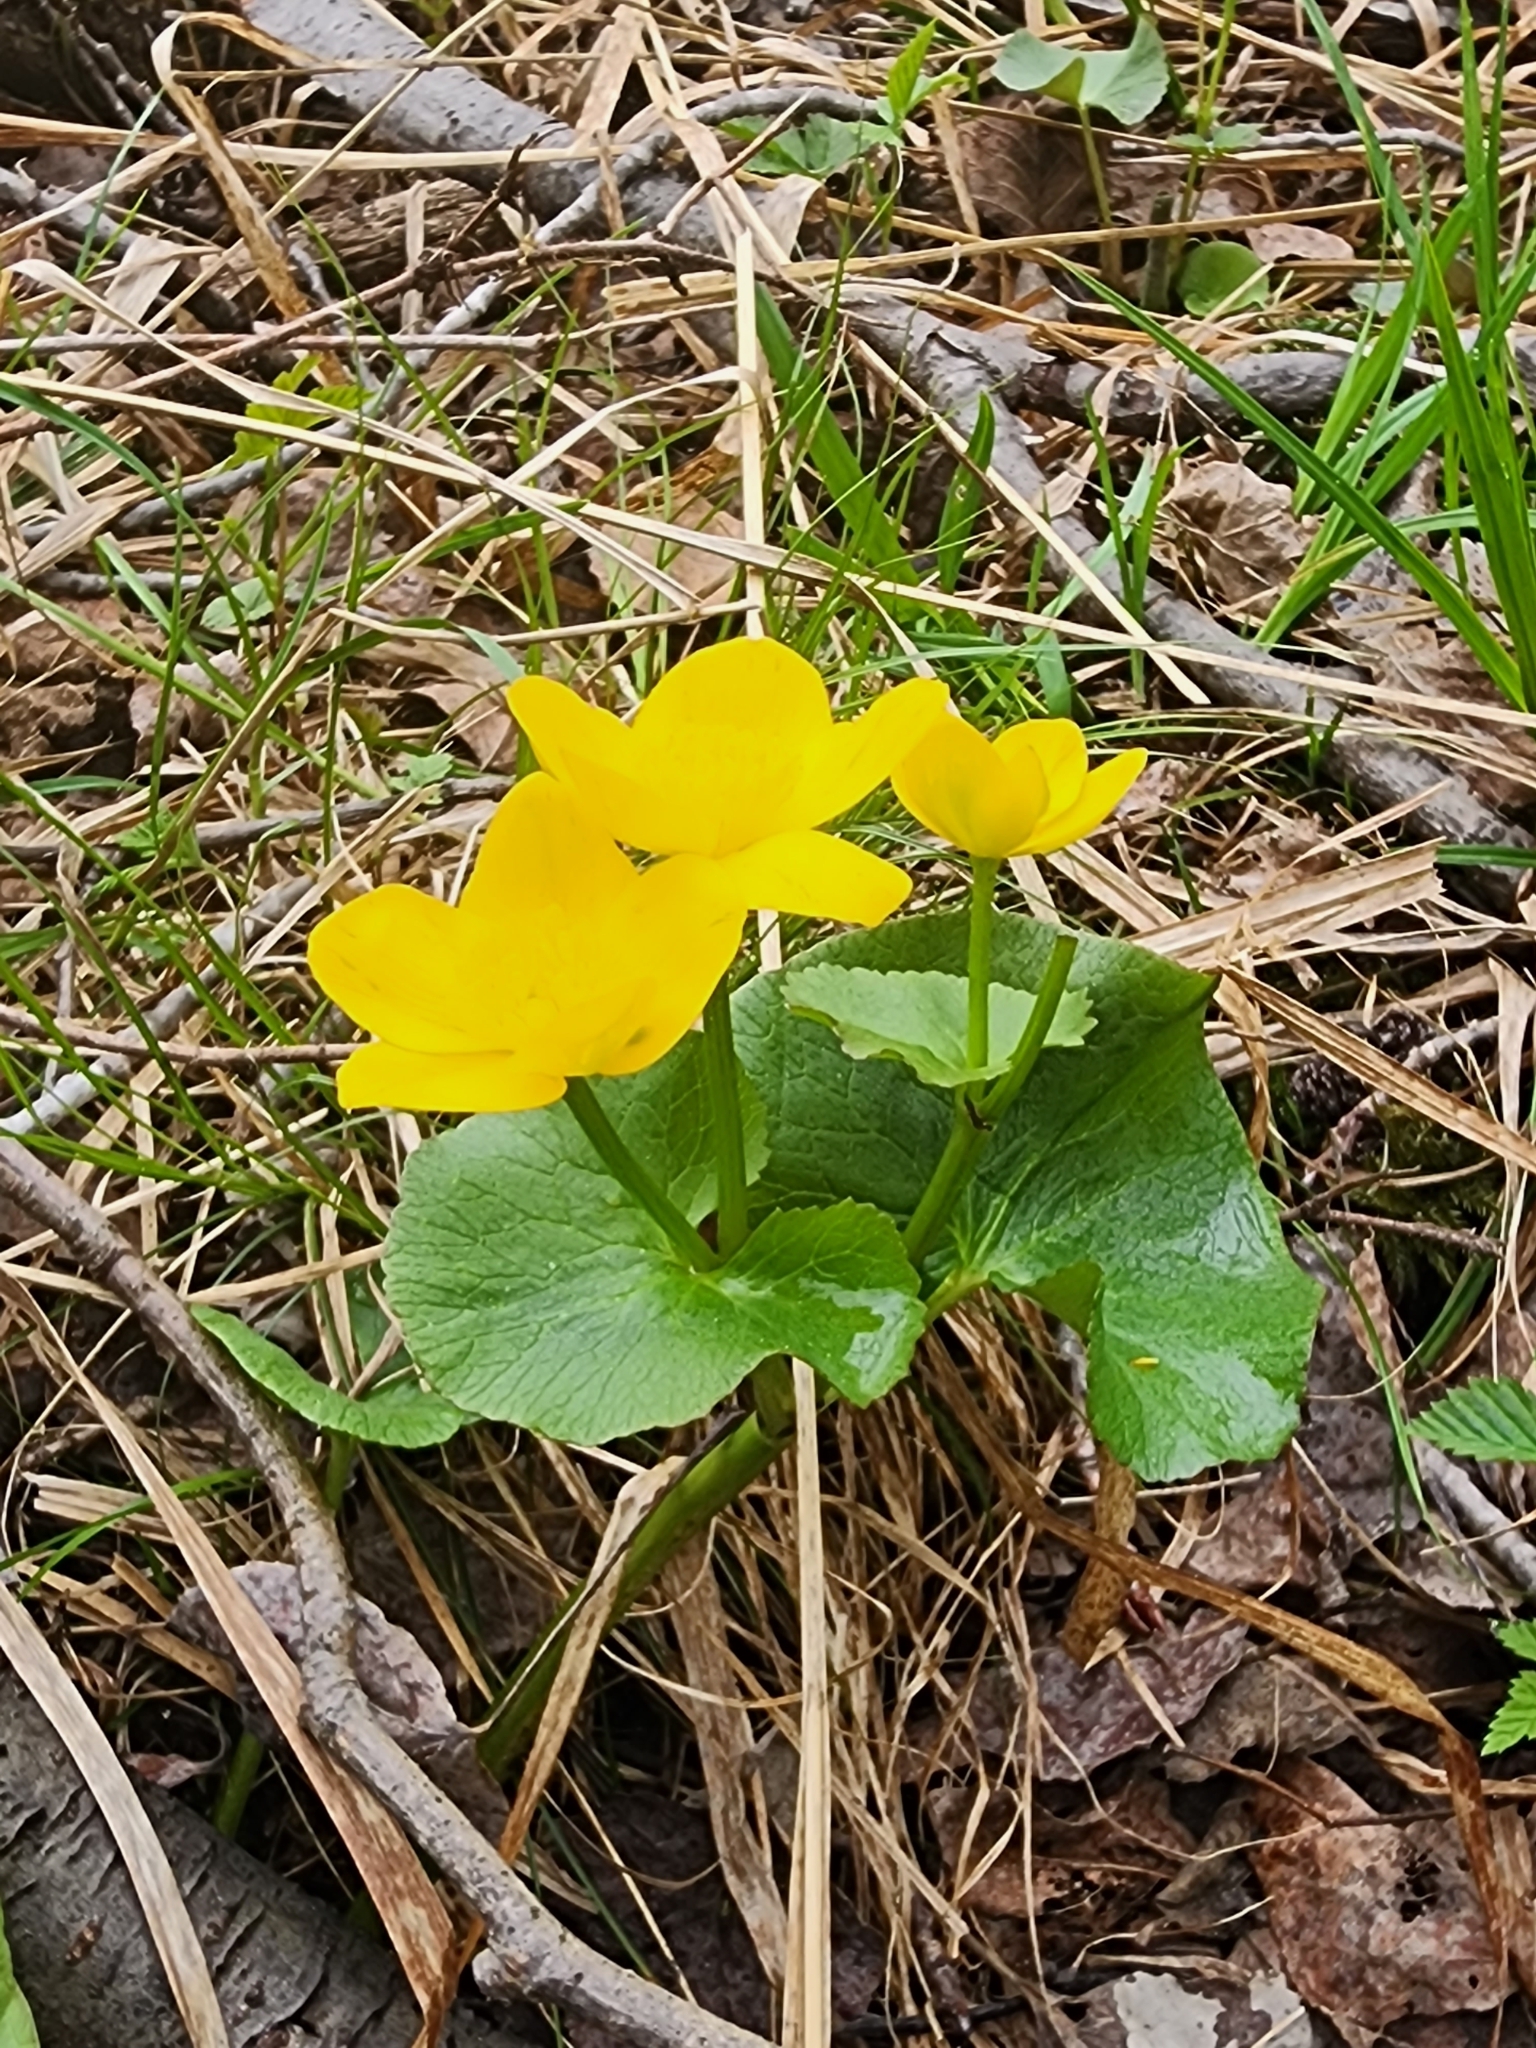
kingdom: Plantae
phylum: Tracheophyta
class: Magnoliopsida
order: Ranunculales
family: Ranunculaceae
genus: Caltha
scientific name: Caltha palustris
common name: Marsh marigold
